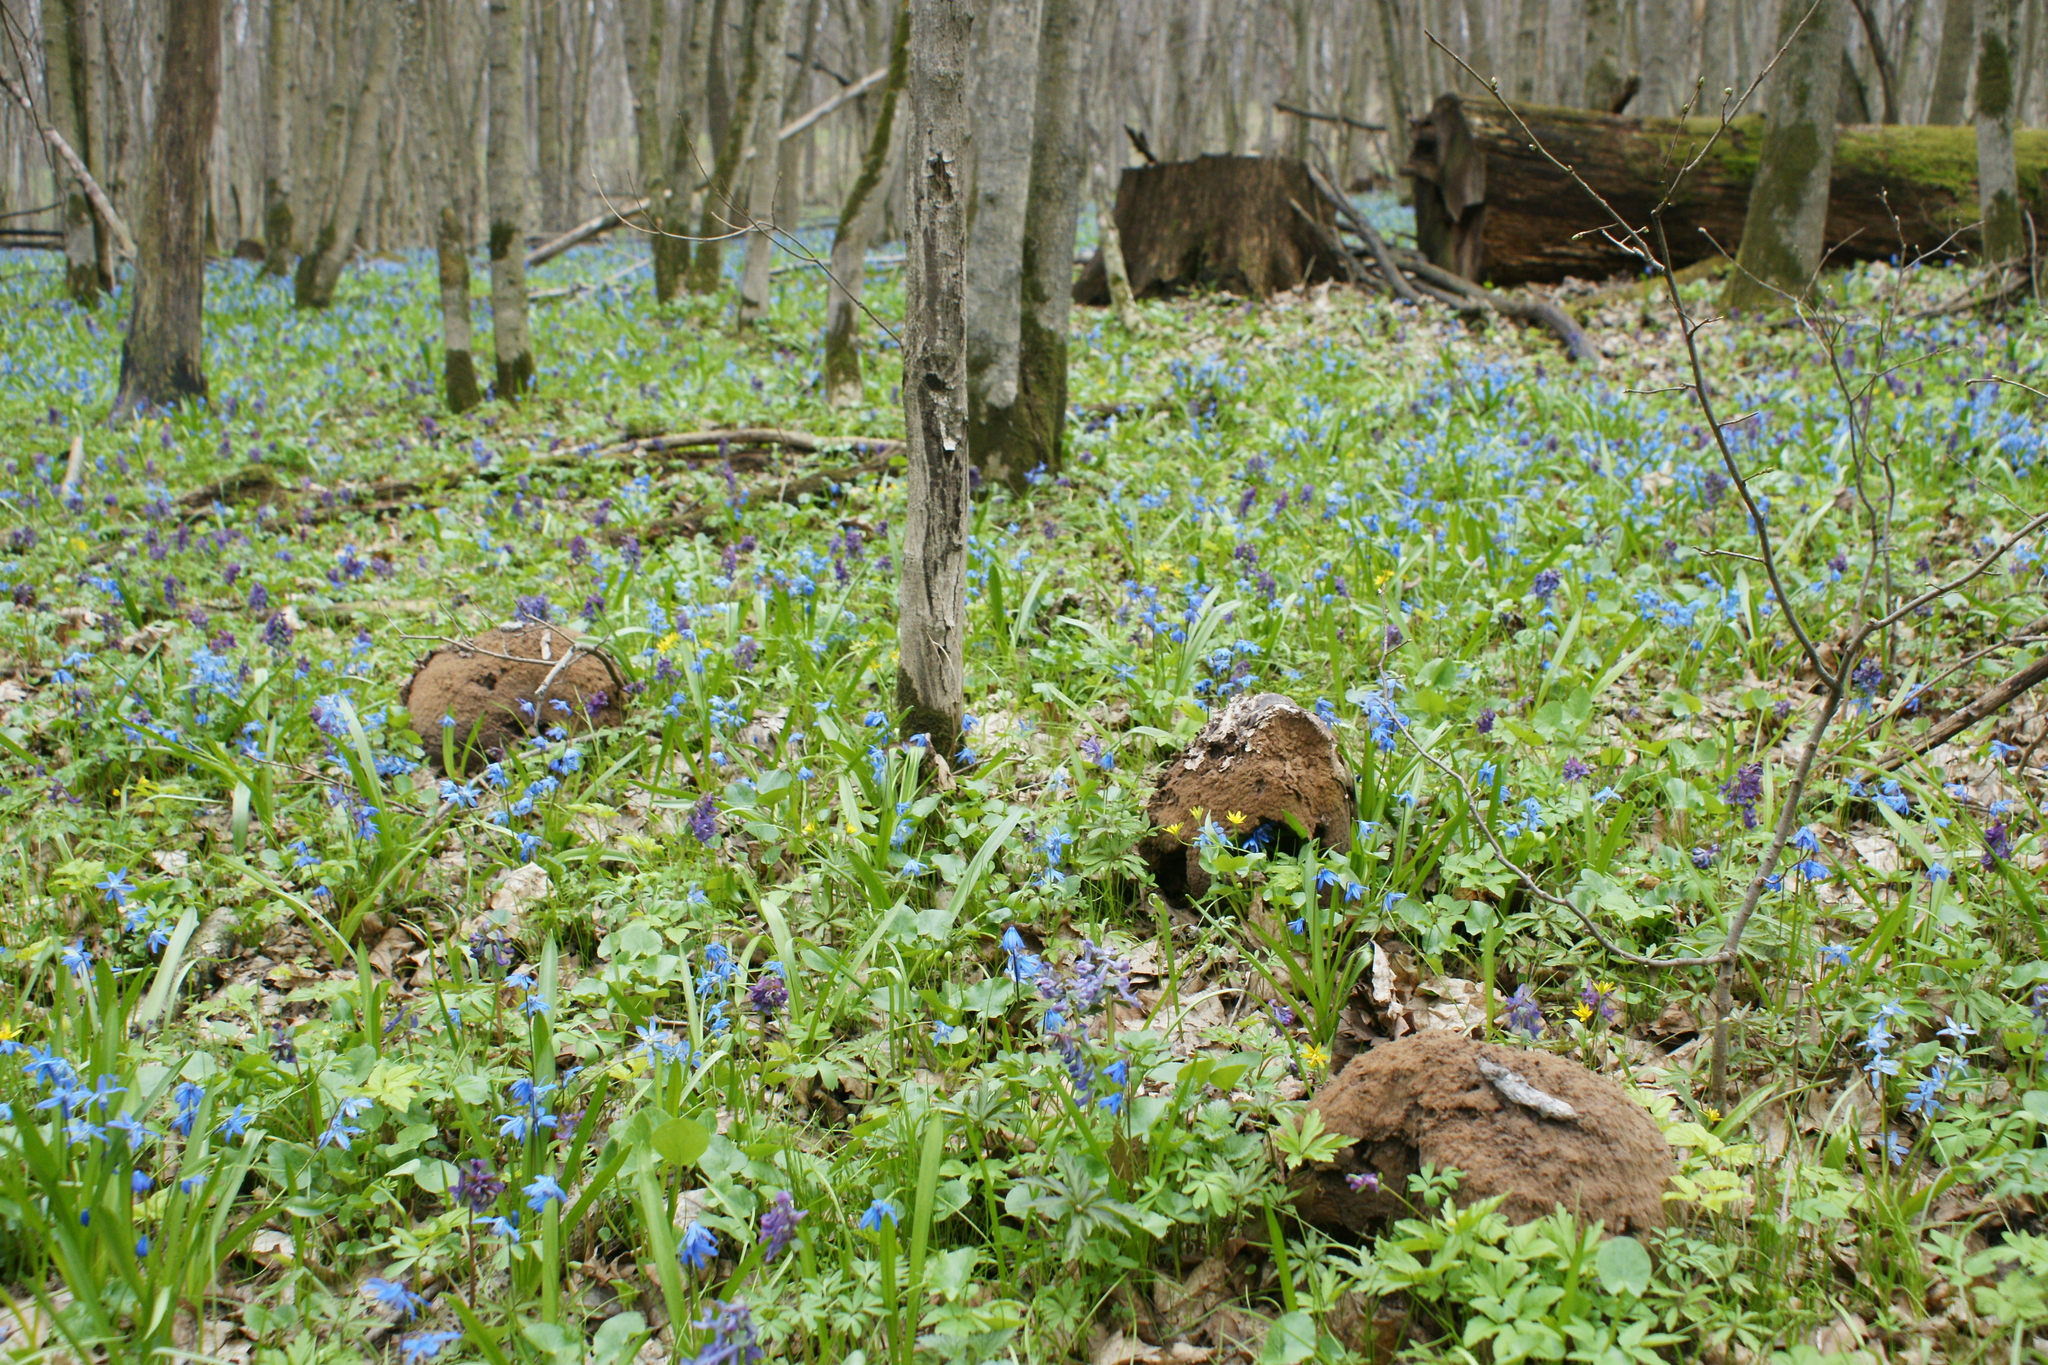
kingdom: Fungi
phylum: Basidiomycota
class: Agaricomycetes
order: Agaricales
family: Lycoperdaceae
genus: Calvatia
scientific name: Calvatia gigantea
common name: Giant puffball
